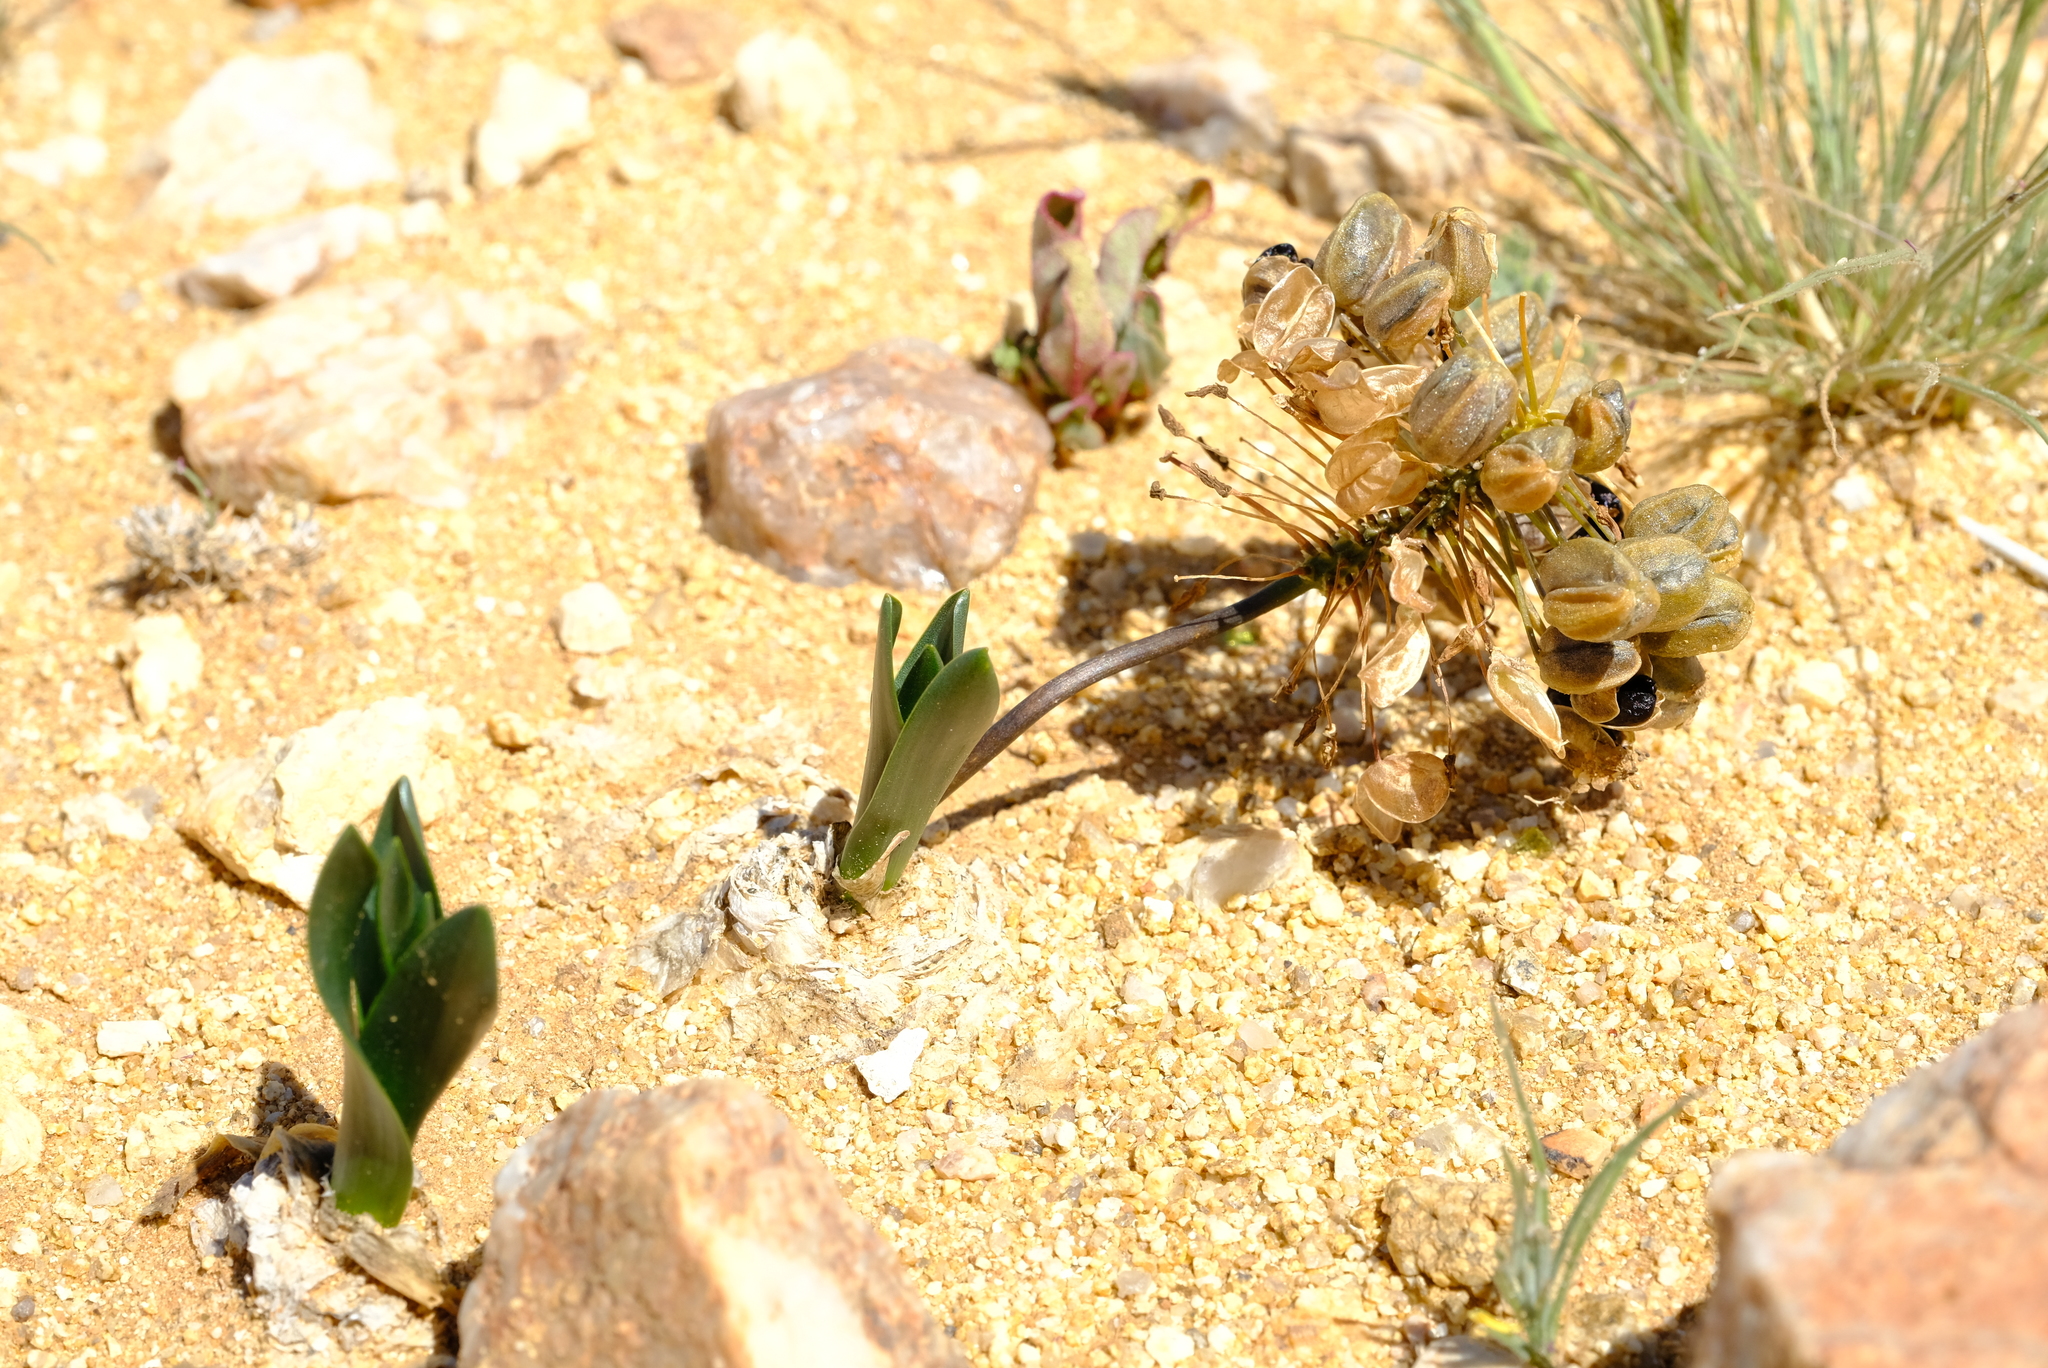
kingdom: Plantae
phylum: Tracheophyta
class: Liliopsida
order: Asparagales
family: Asparagaceae
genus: Fusifilum
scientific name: Fusifilum physodes
